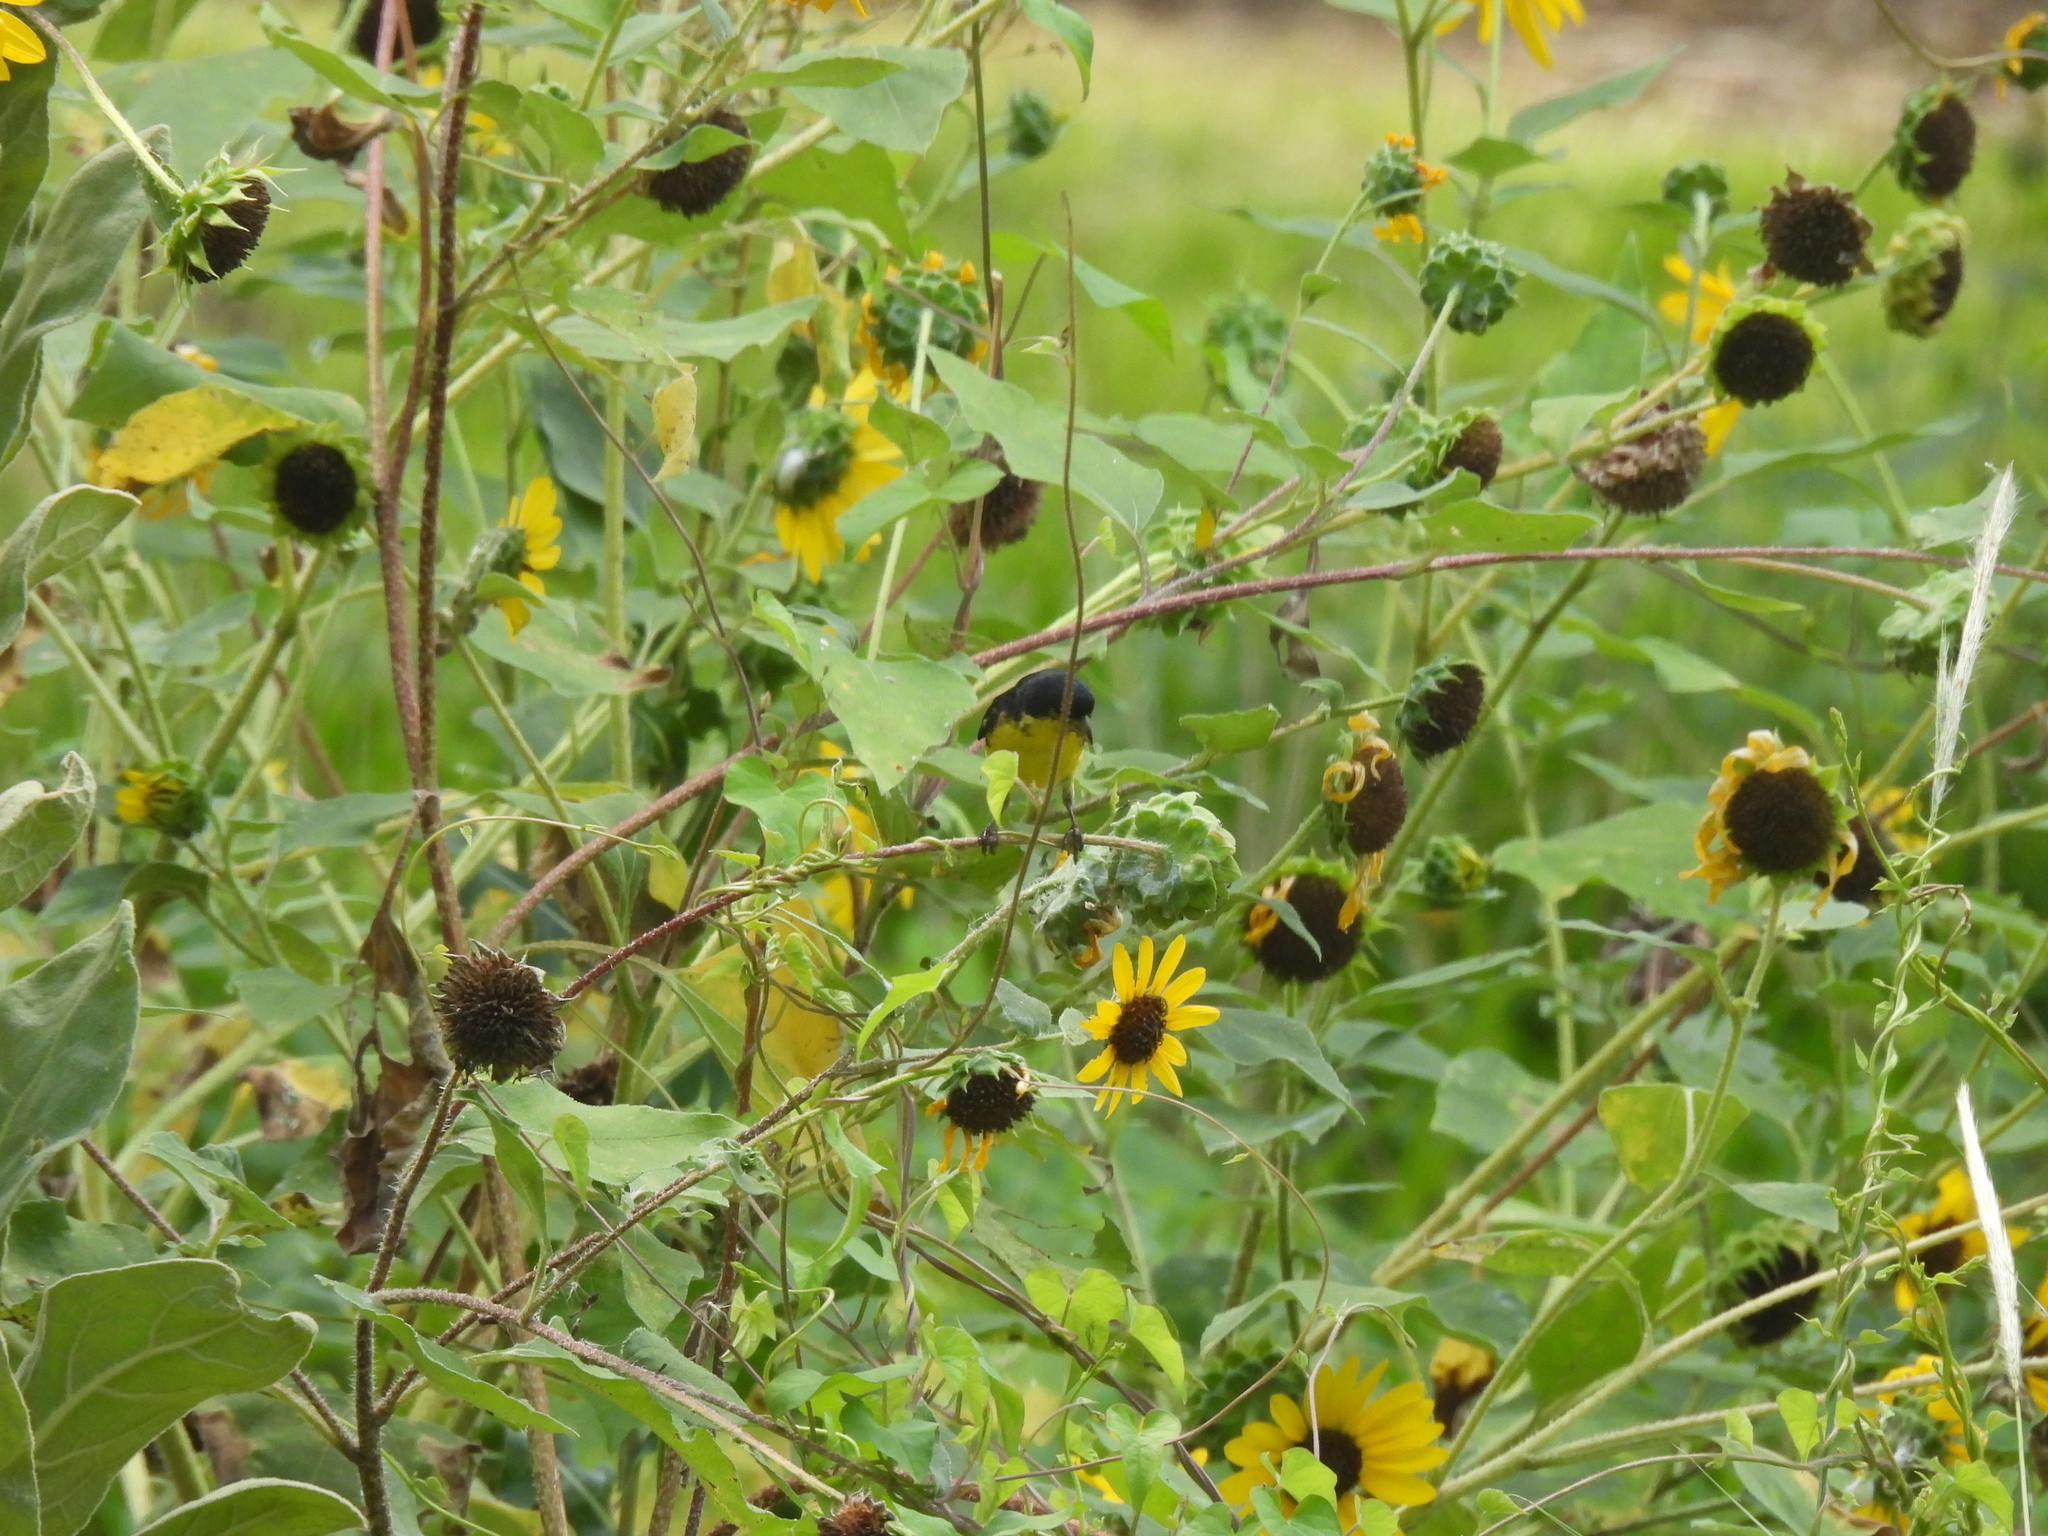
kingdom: Animalia
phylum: Chordata
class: Aves
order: Passeriformes
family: Fringillidae
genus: Spinus
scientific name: Spinus psaltria
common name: Lesser goldfinch
